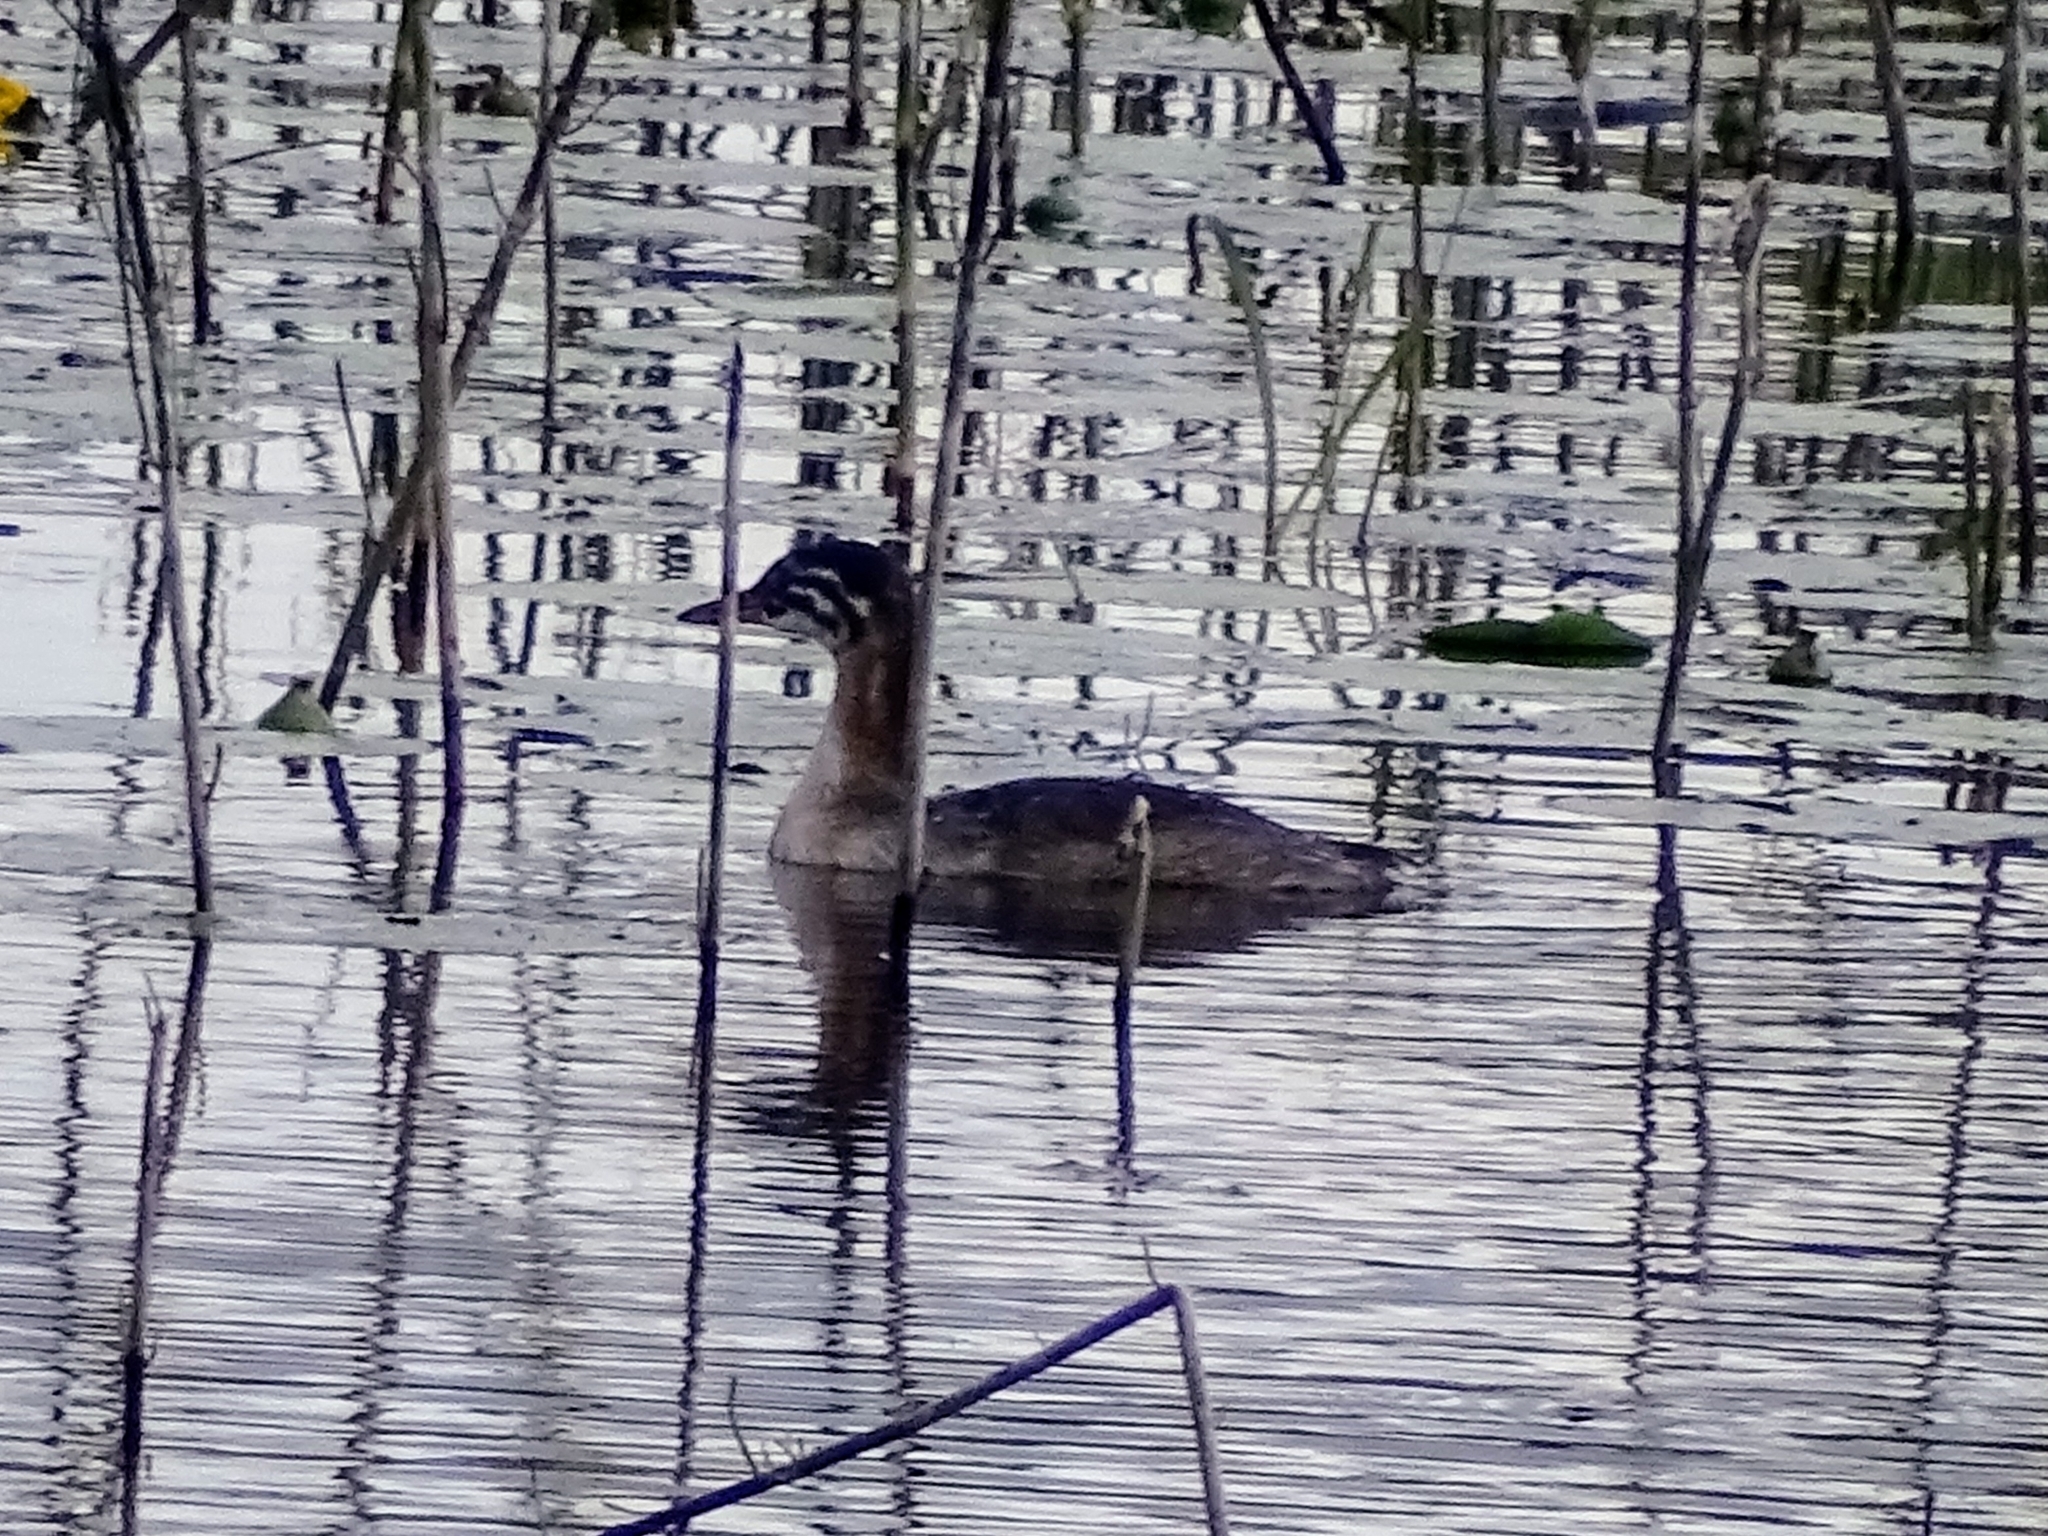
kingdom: Animalia
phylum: Chordata
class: Aves
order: Podicipediformes
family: Podicipedidae
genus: Podiceps
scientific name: Podiceps grisegena
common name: Red-necked grebe
